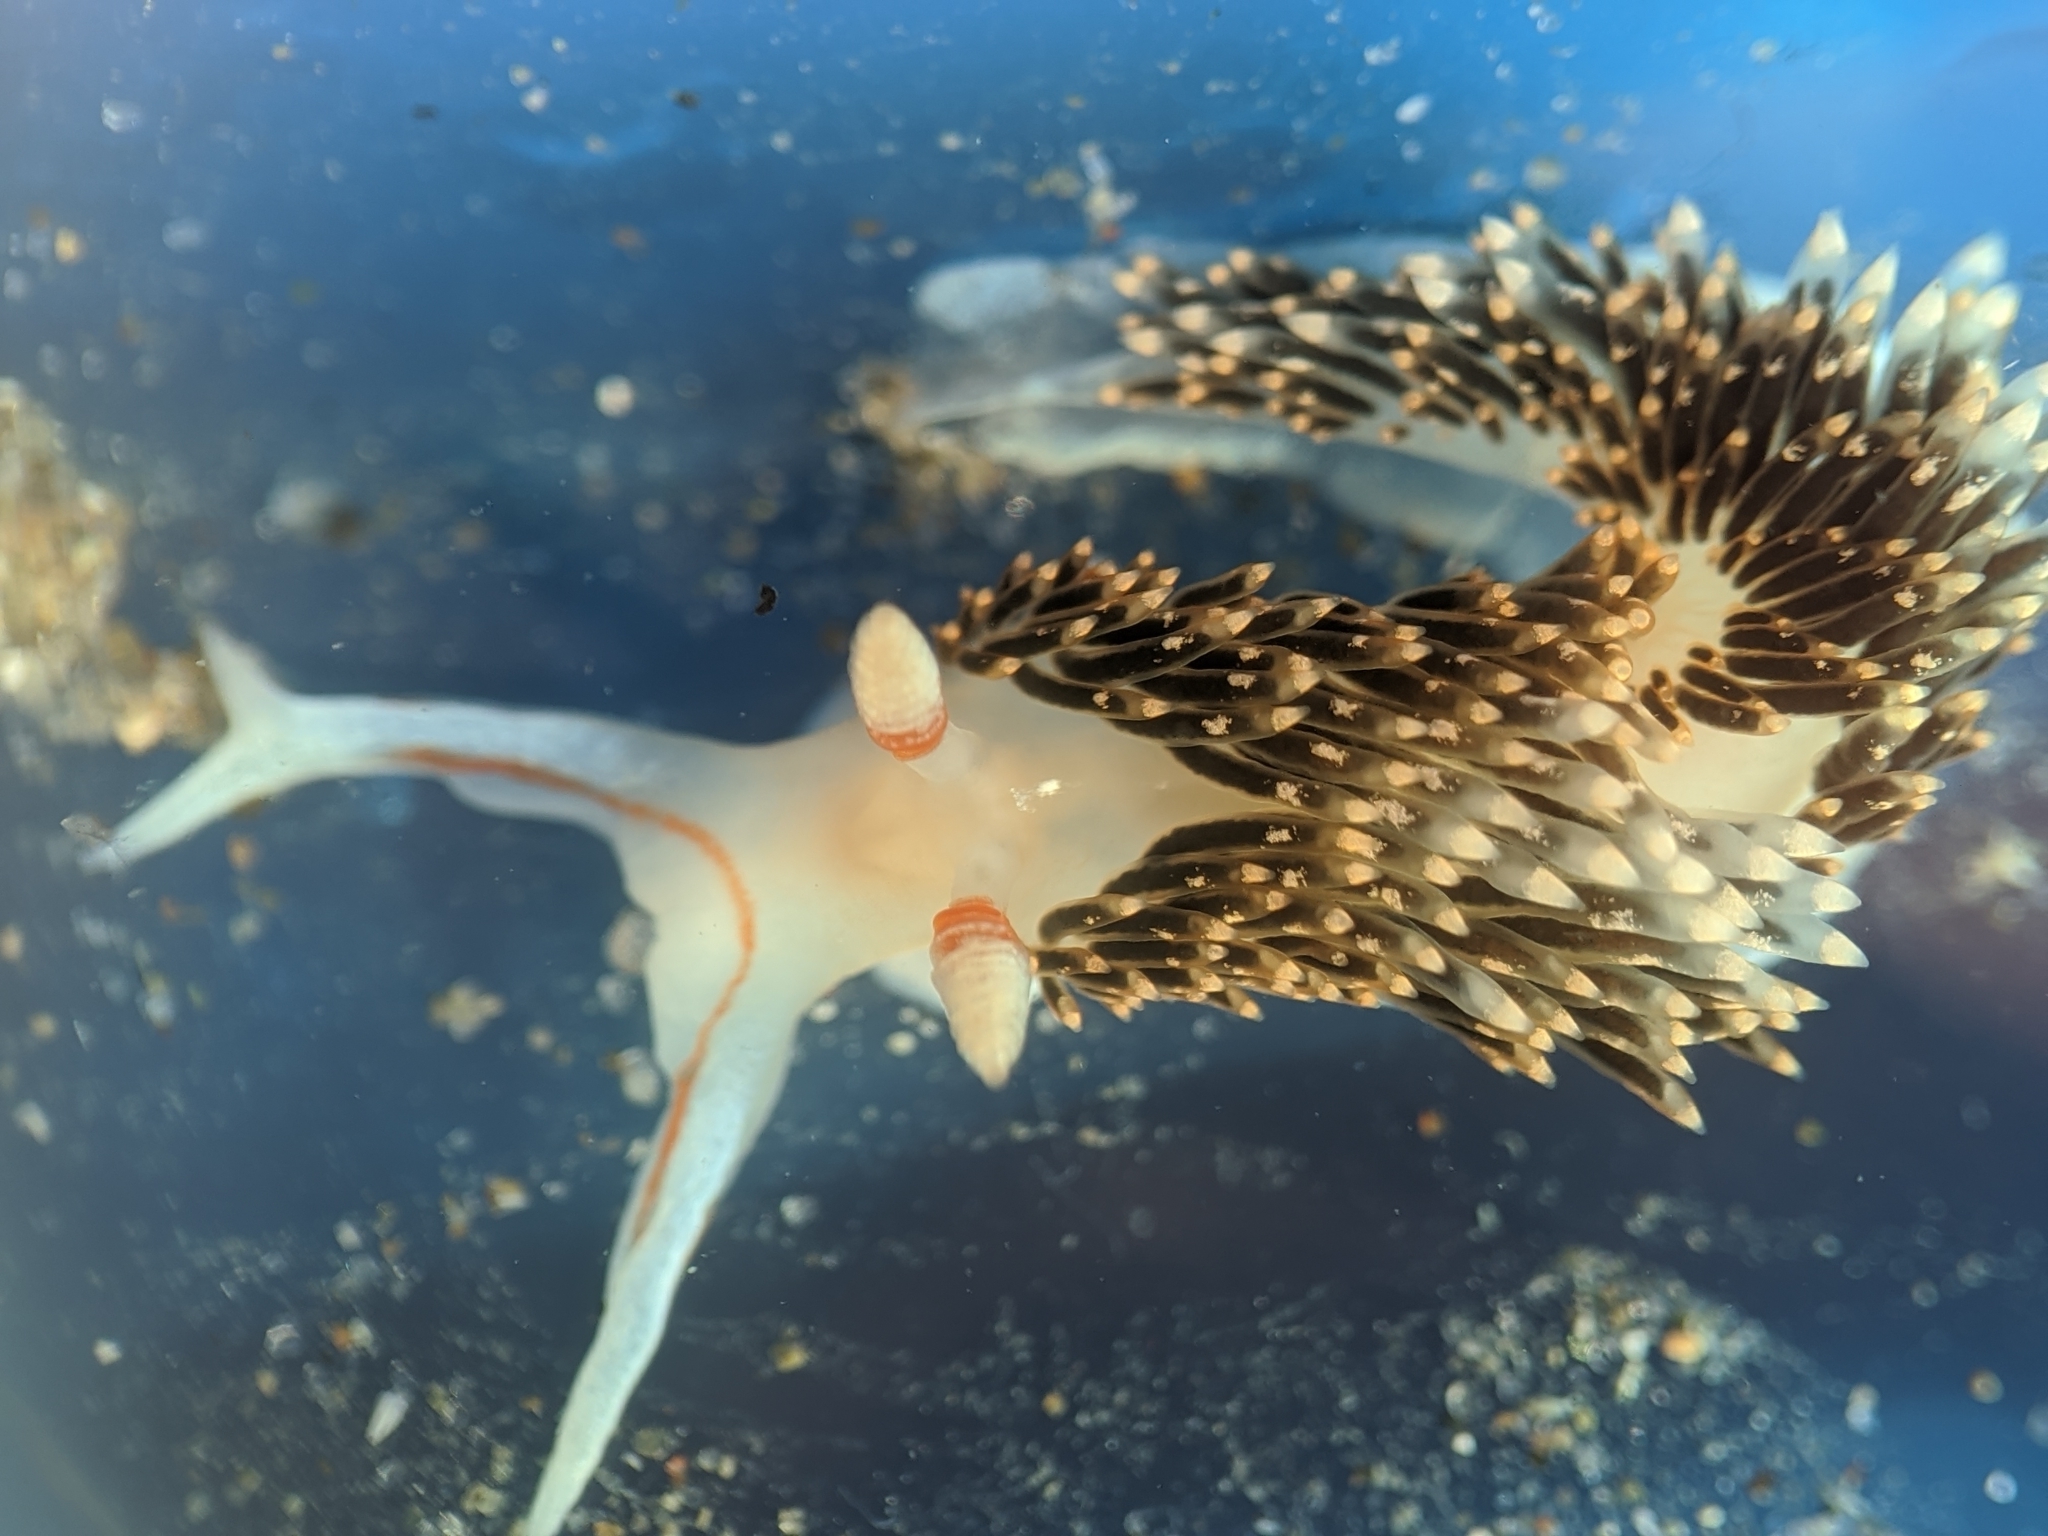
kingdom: Animalia
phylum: Mollusca
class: Gastropoda
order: Nudibranchia
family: Facelinidae
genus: Phidiana
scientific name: Phidiana hiltoni
